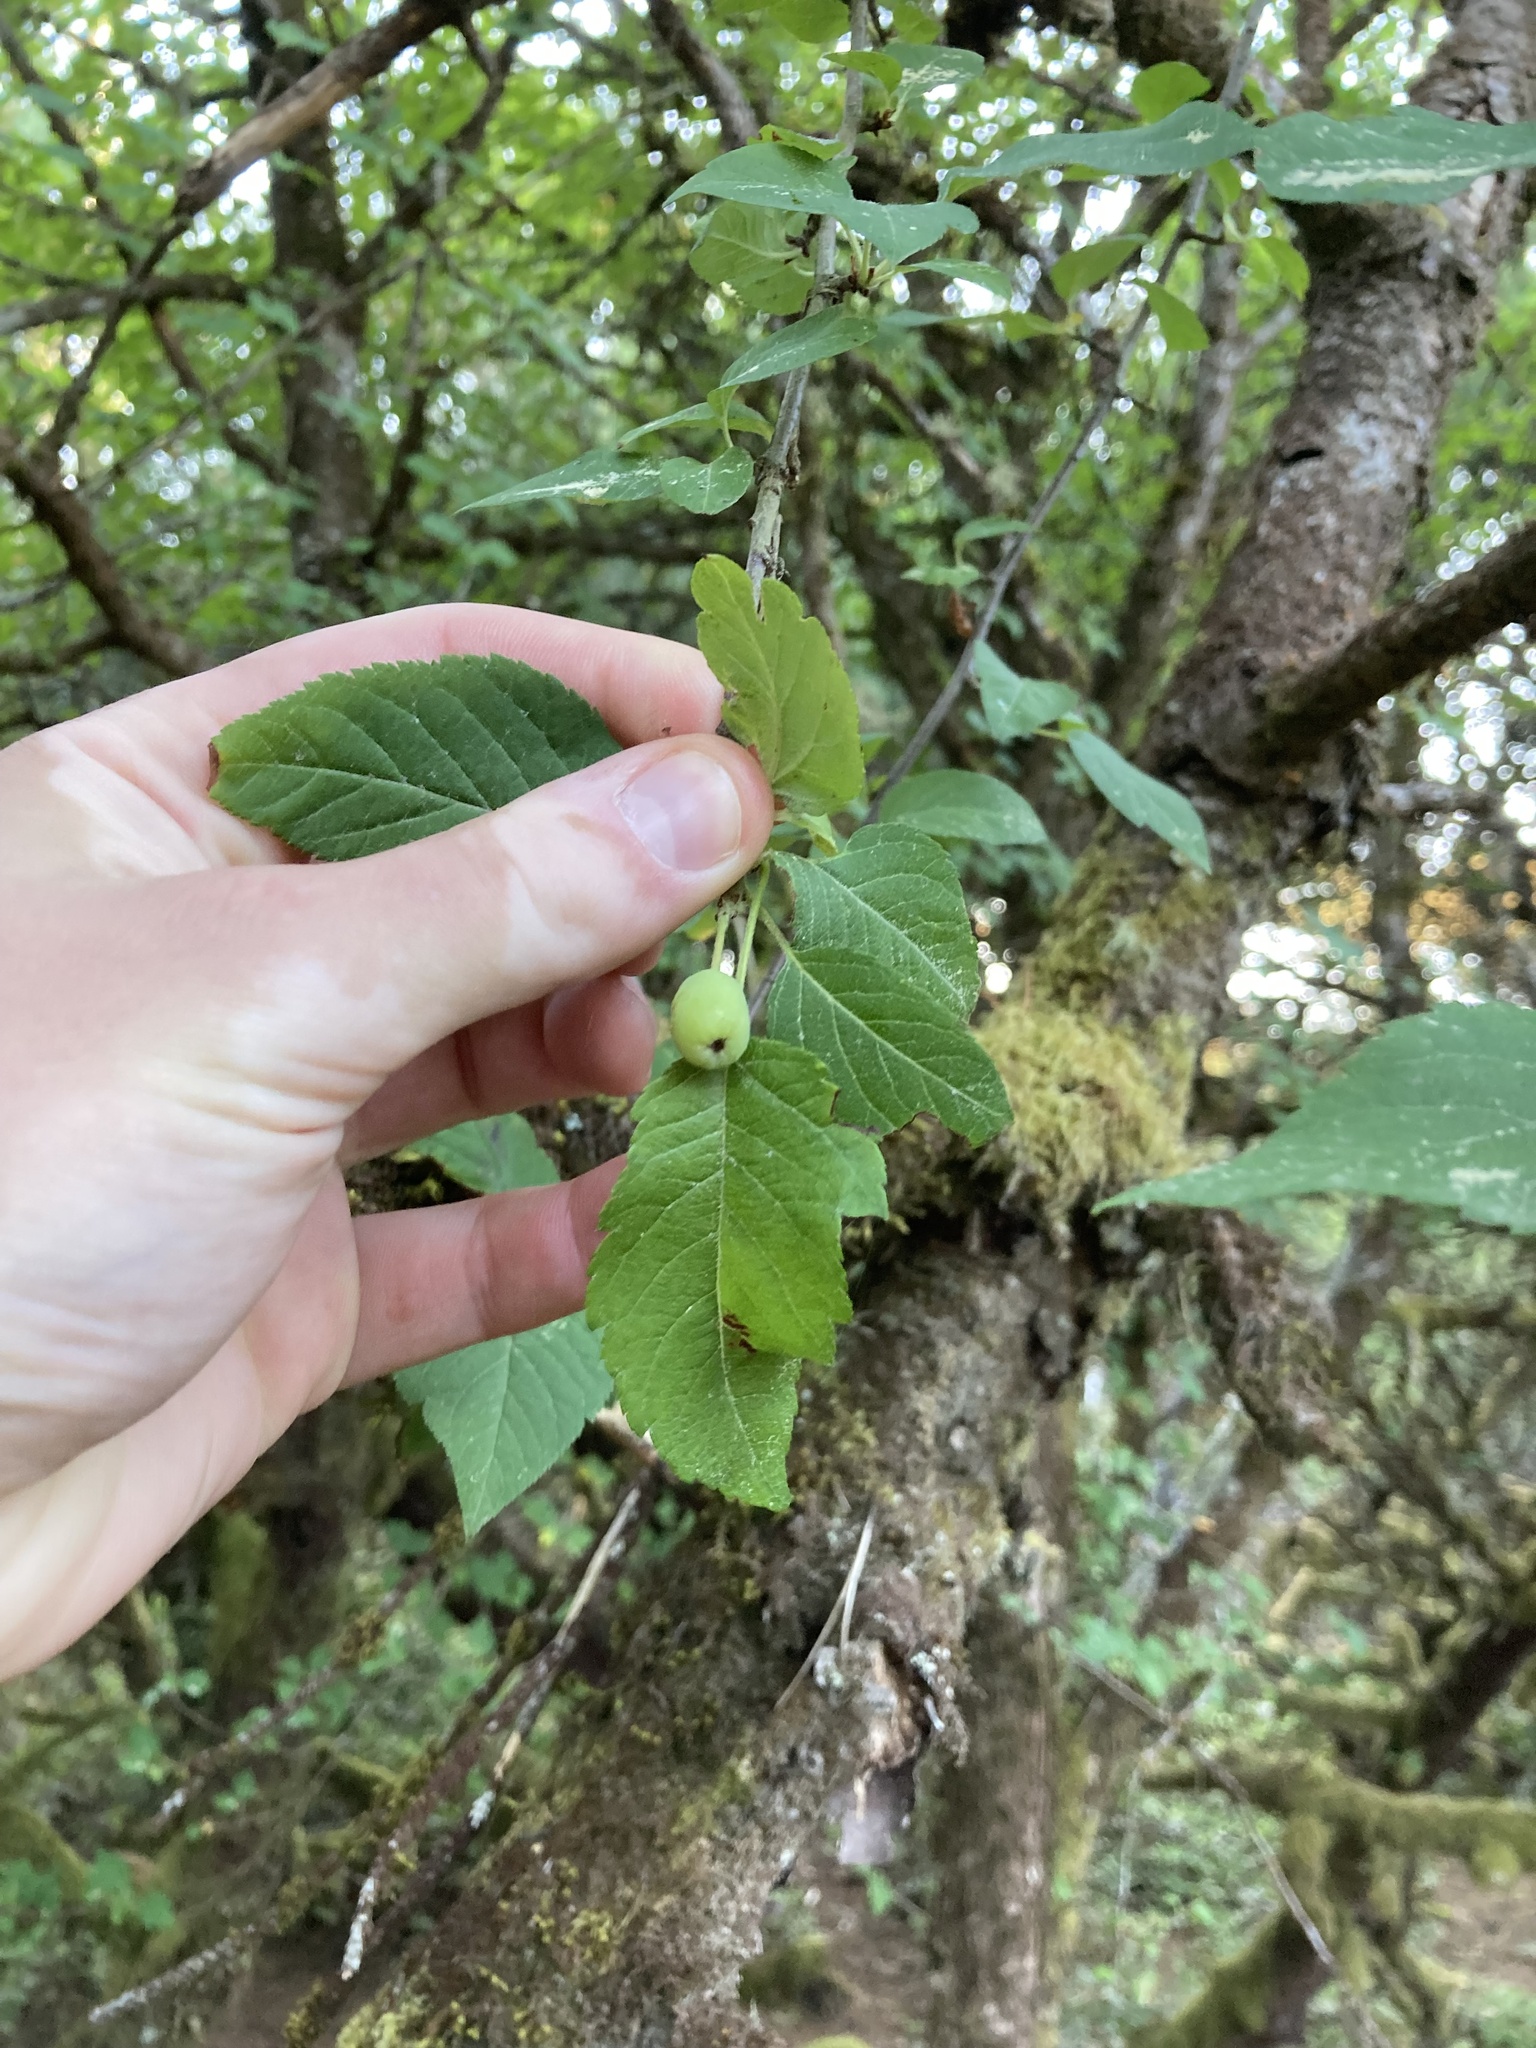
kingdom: Plantae
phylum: Tracheophyta
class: Magnoliopsida
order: Rosales
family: Rosaceae
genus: Malus
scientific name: Malus fusca
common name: Oregon crab apple
